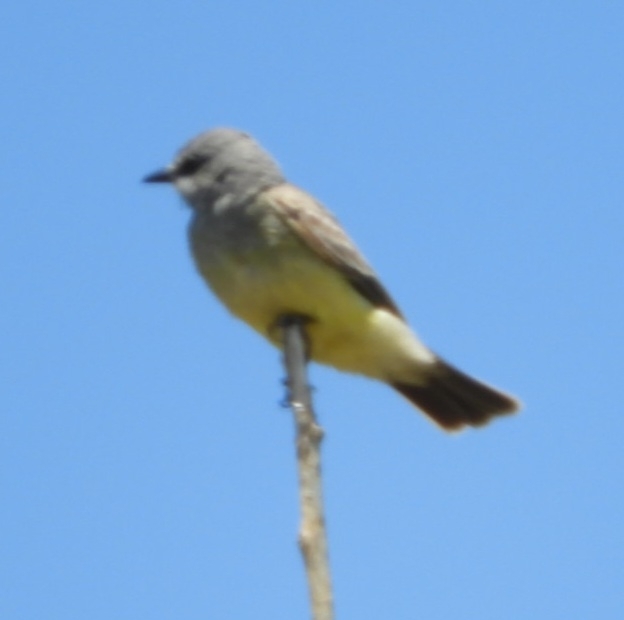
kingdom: Animalia
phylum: Chordata
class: Aves
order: Passeriformes
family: Tyrannidae
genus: Tyrannus
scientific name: Tyrannus vociferans
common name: Cassin's kingbird
